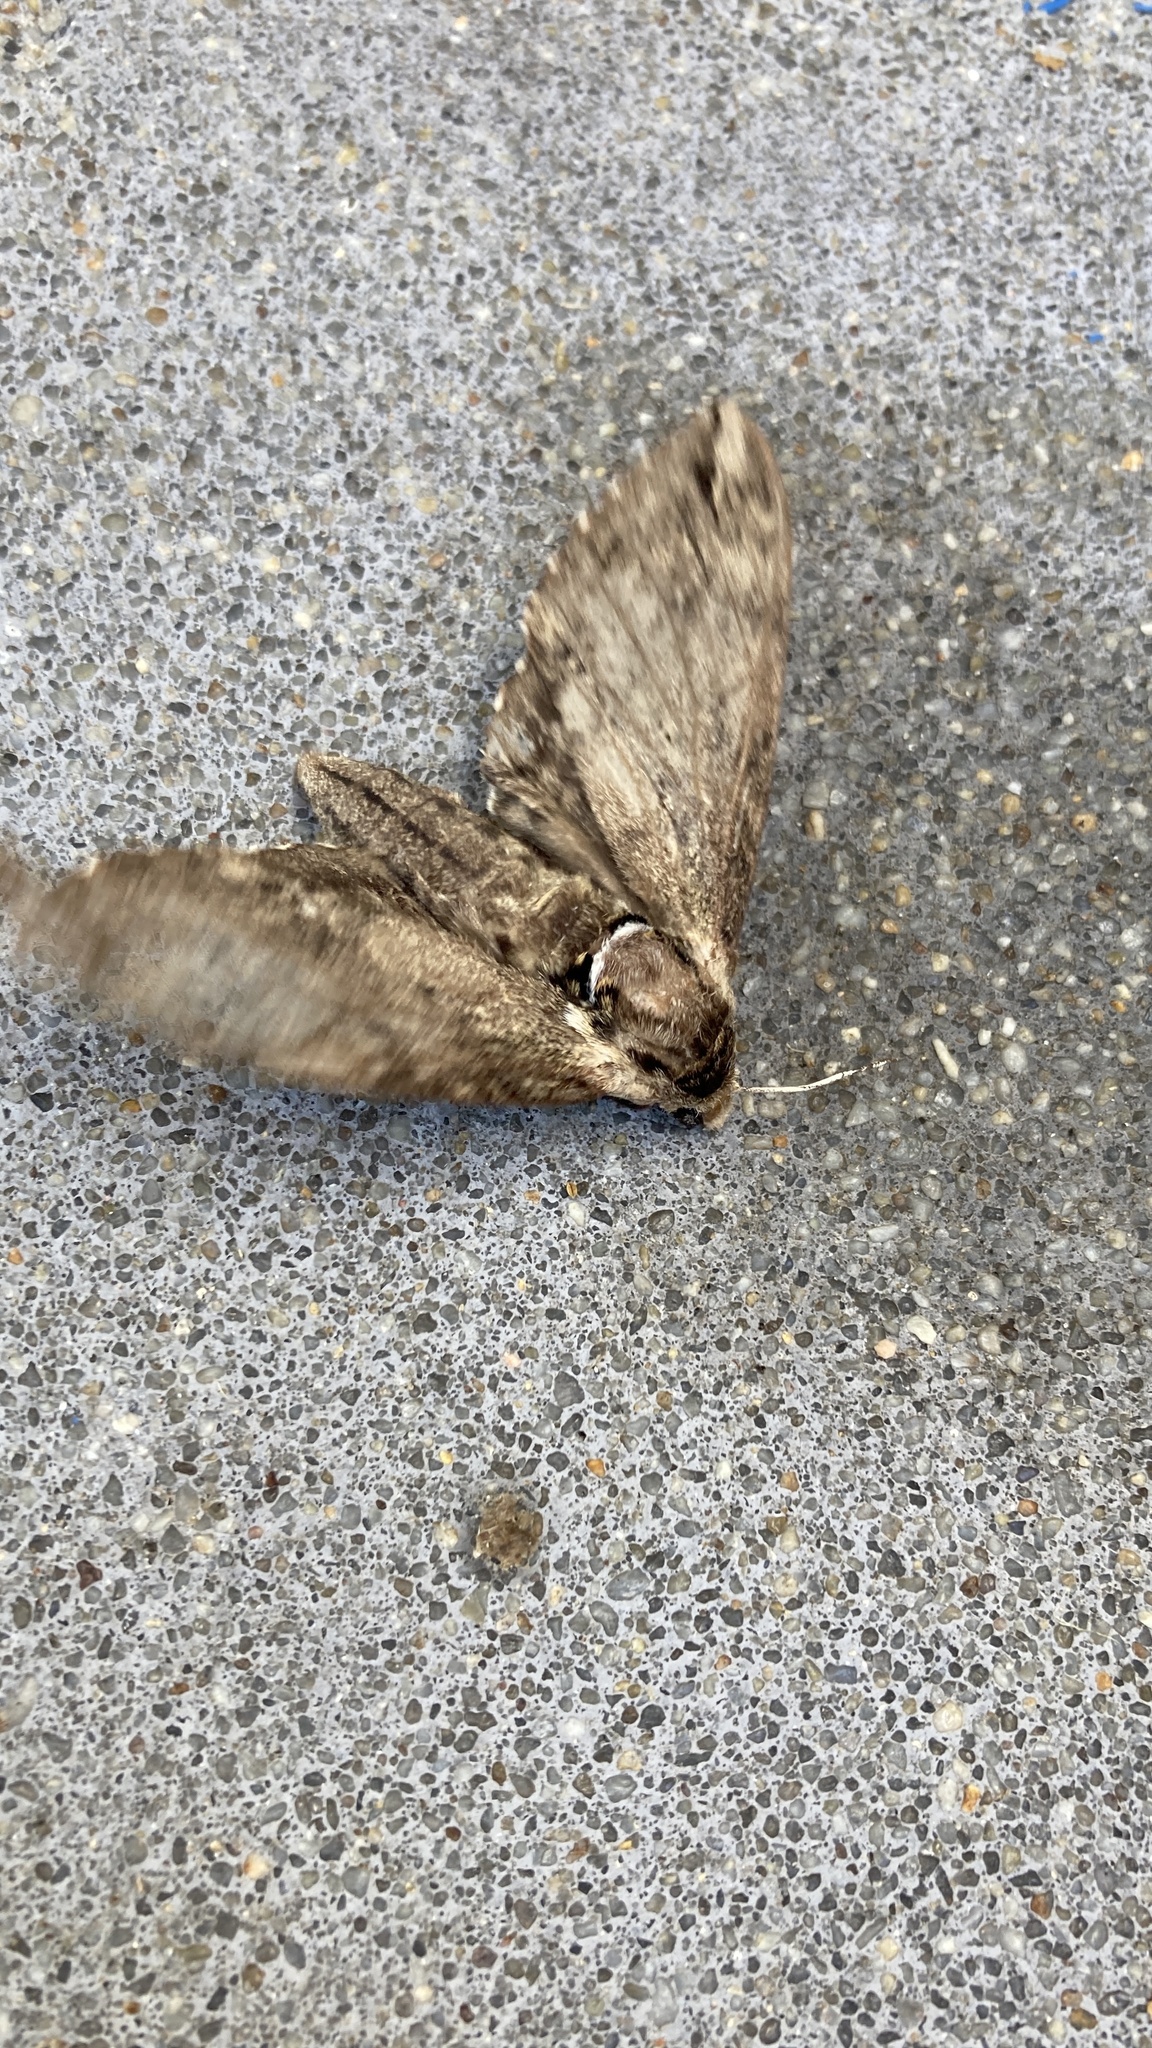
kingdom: Animalia
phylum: Arthropoda
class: Insecta
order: Lepidoptera
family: Sphingidae
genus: Ceratomia
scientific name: Ceratomia catalpae
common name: Catalpa hornworm
